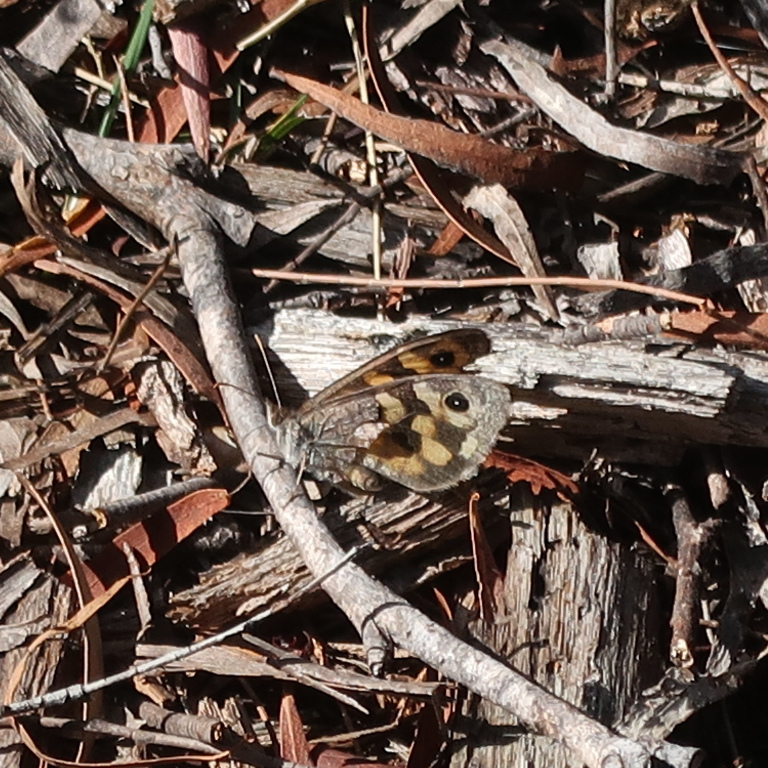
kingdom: Animalia
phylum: Arthropoda
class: Insecta
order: Lepidoptera
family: Nymphalidae
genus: Geitoneura
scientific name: Geitoneura klugii
